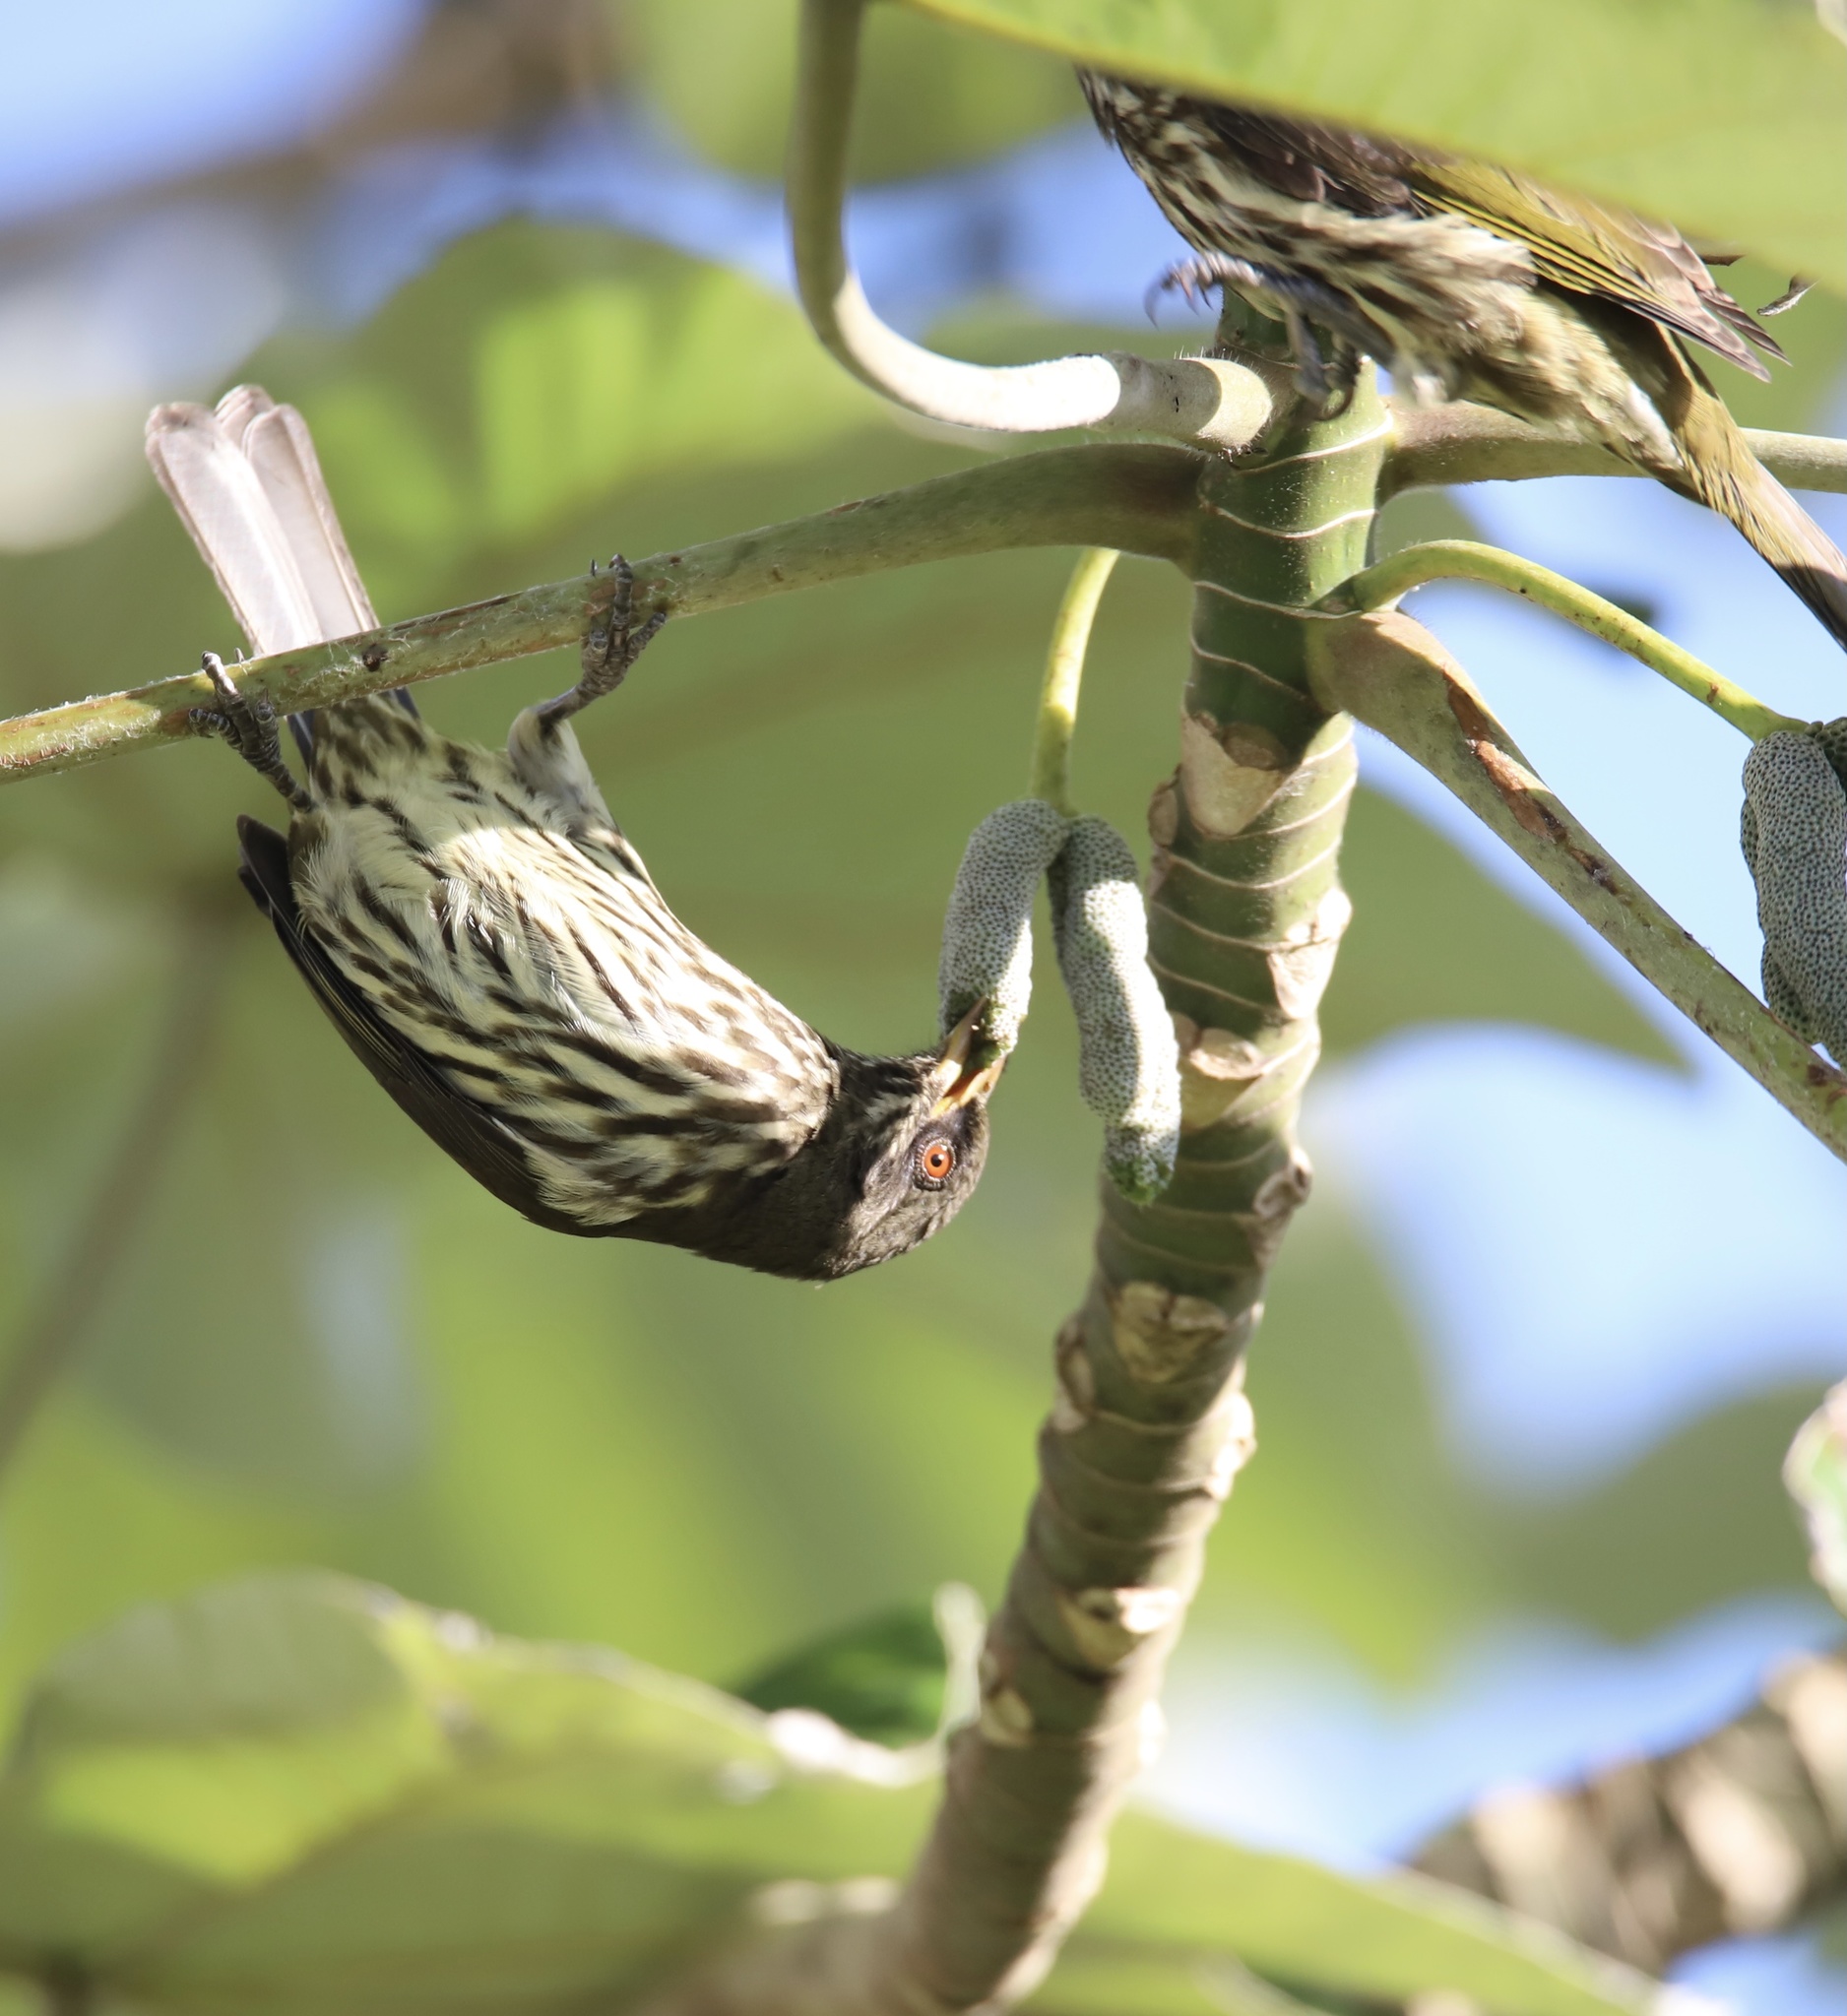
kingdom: Animalia
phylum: Chordata
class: Aves
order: Passeriformes
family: Dulidae
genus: Dulus
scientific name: Dulus dominicus
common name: Palmchat
